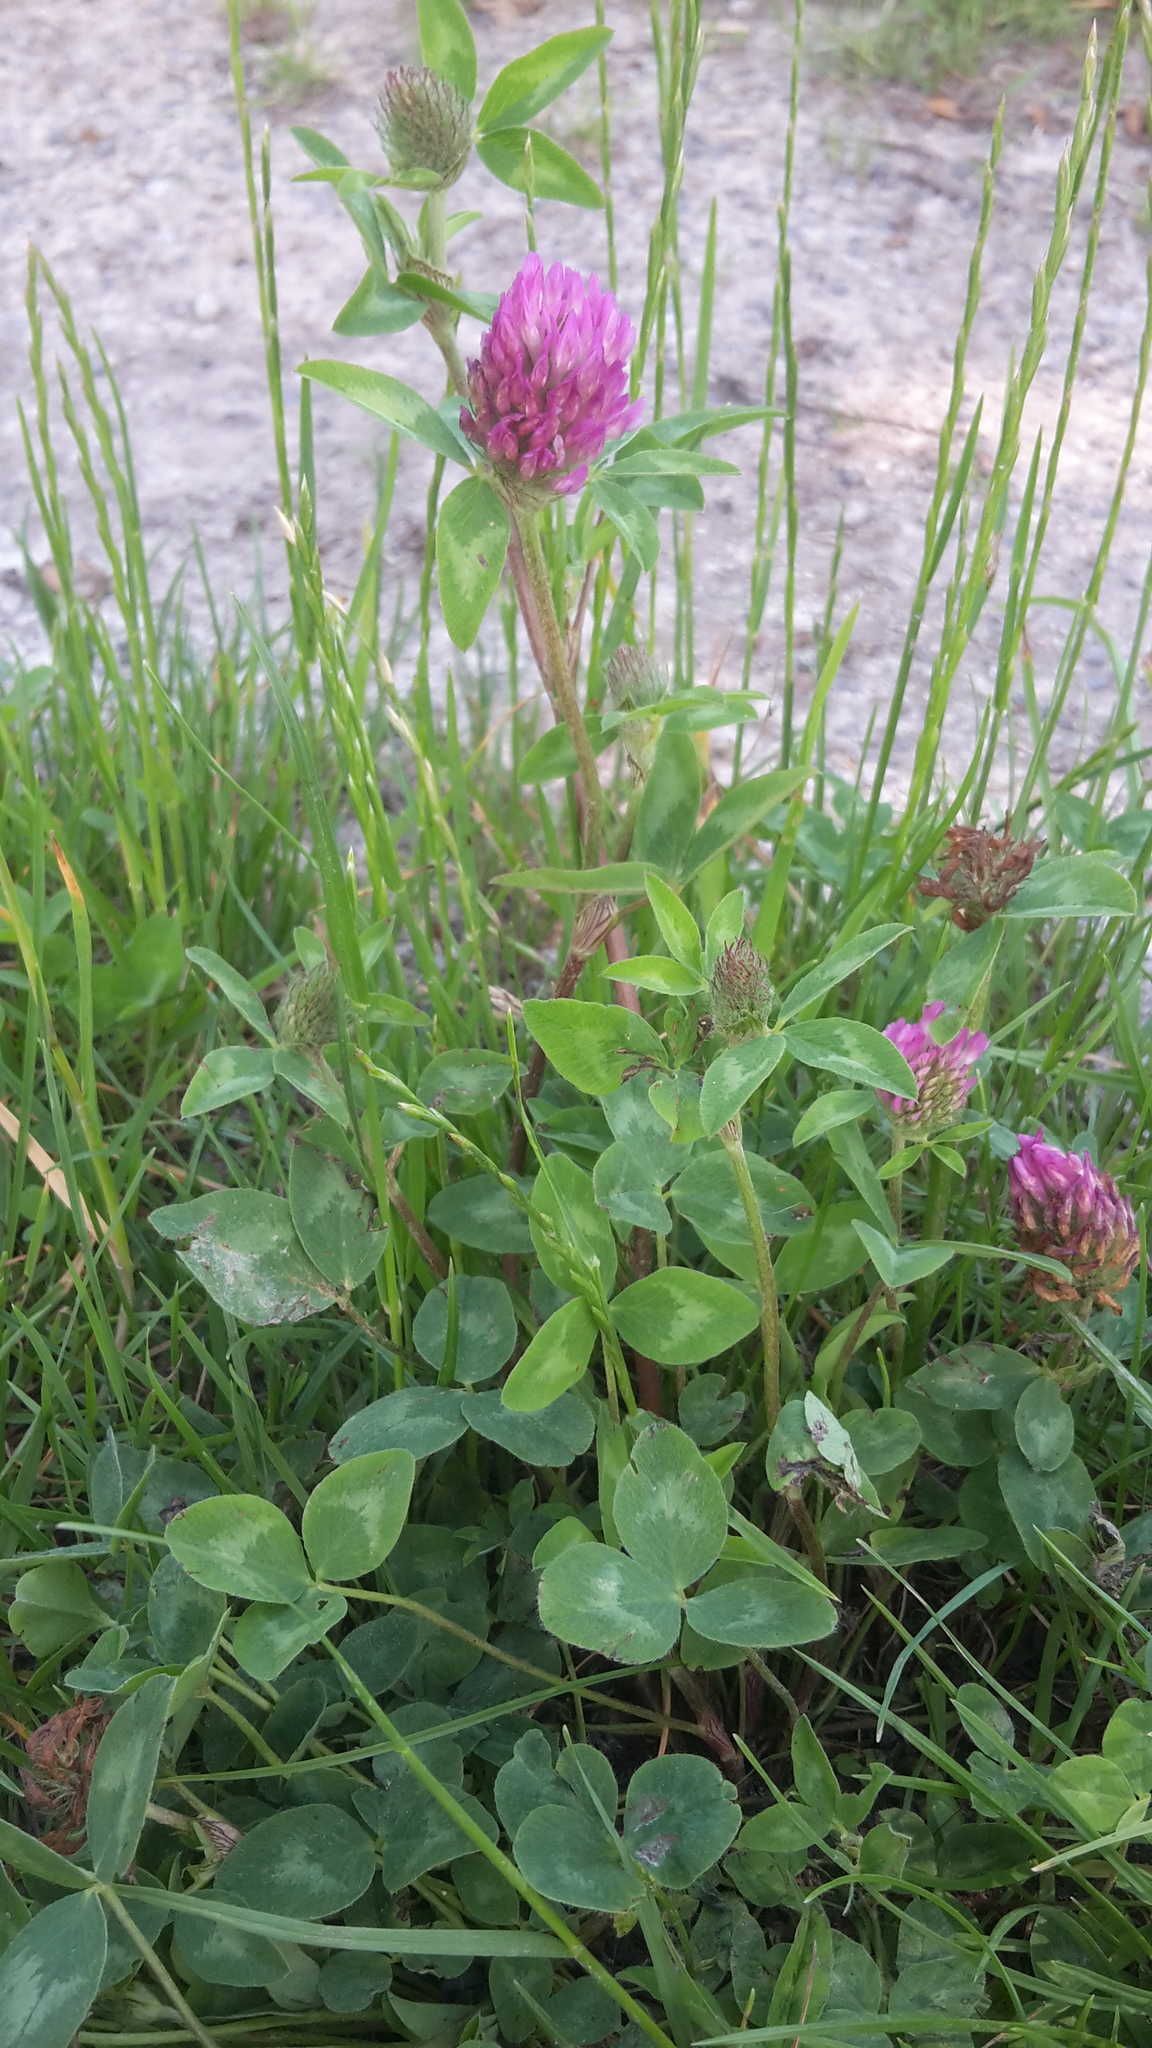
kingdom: Plantae
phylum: Tracheophyta
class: Magnoliopsida
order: Fabales
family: Fabaceae
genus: Trifolium
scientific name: Trifolium pratense
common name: Red clover
